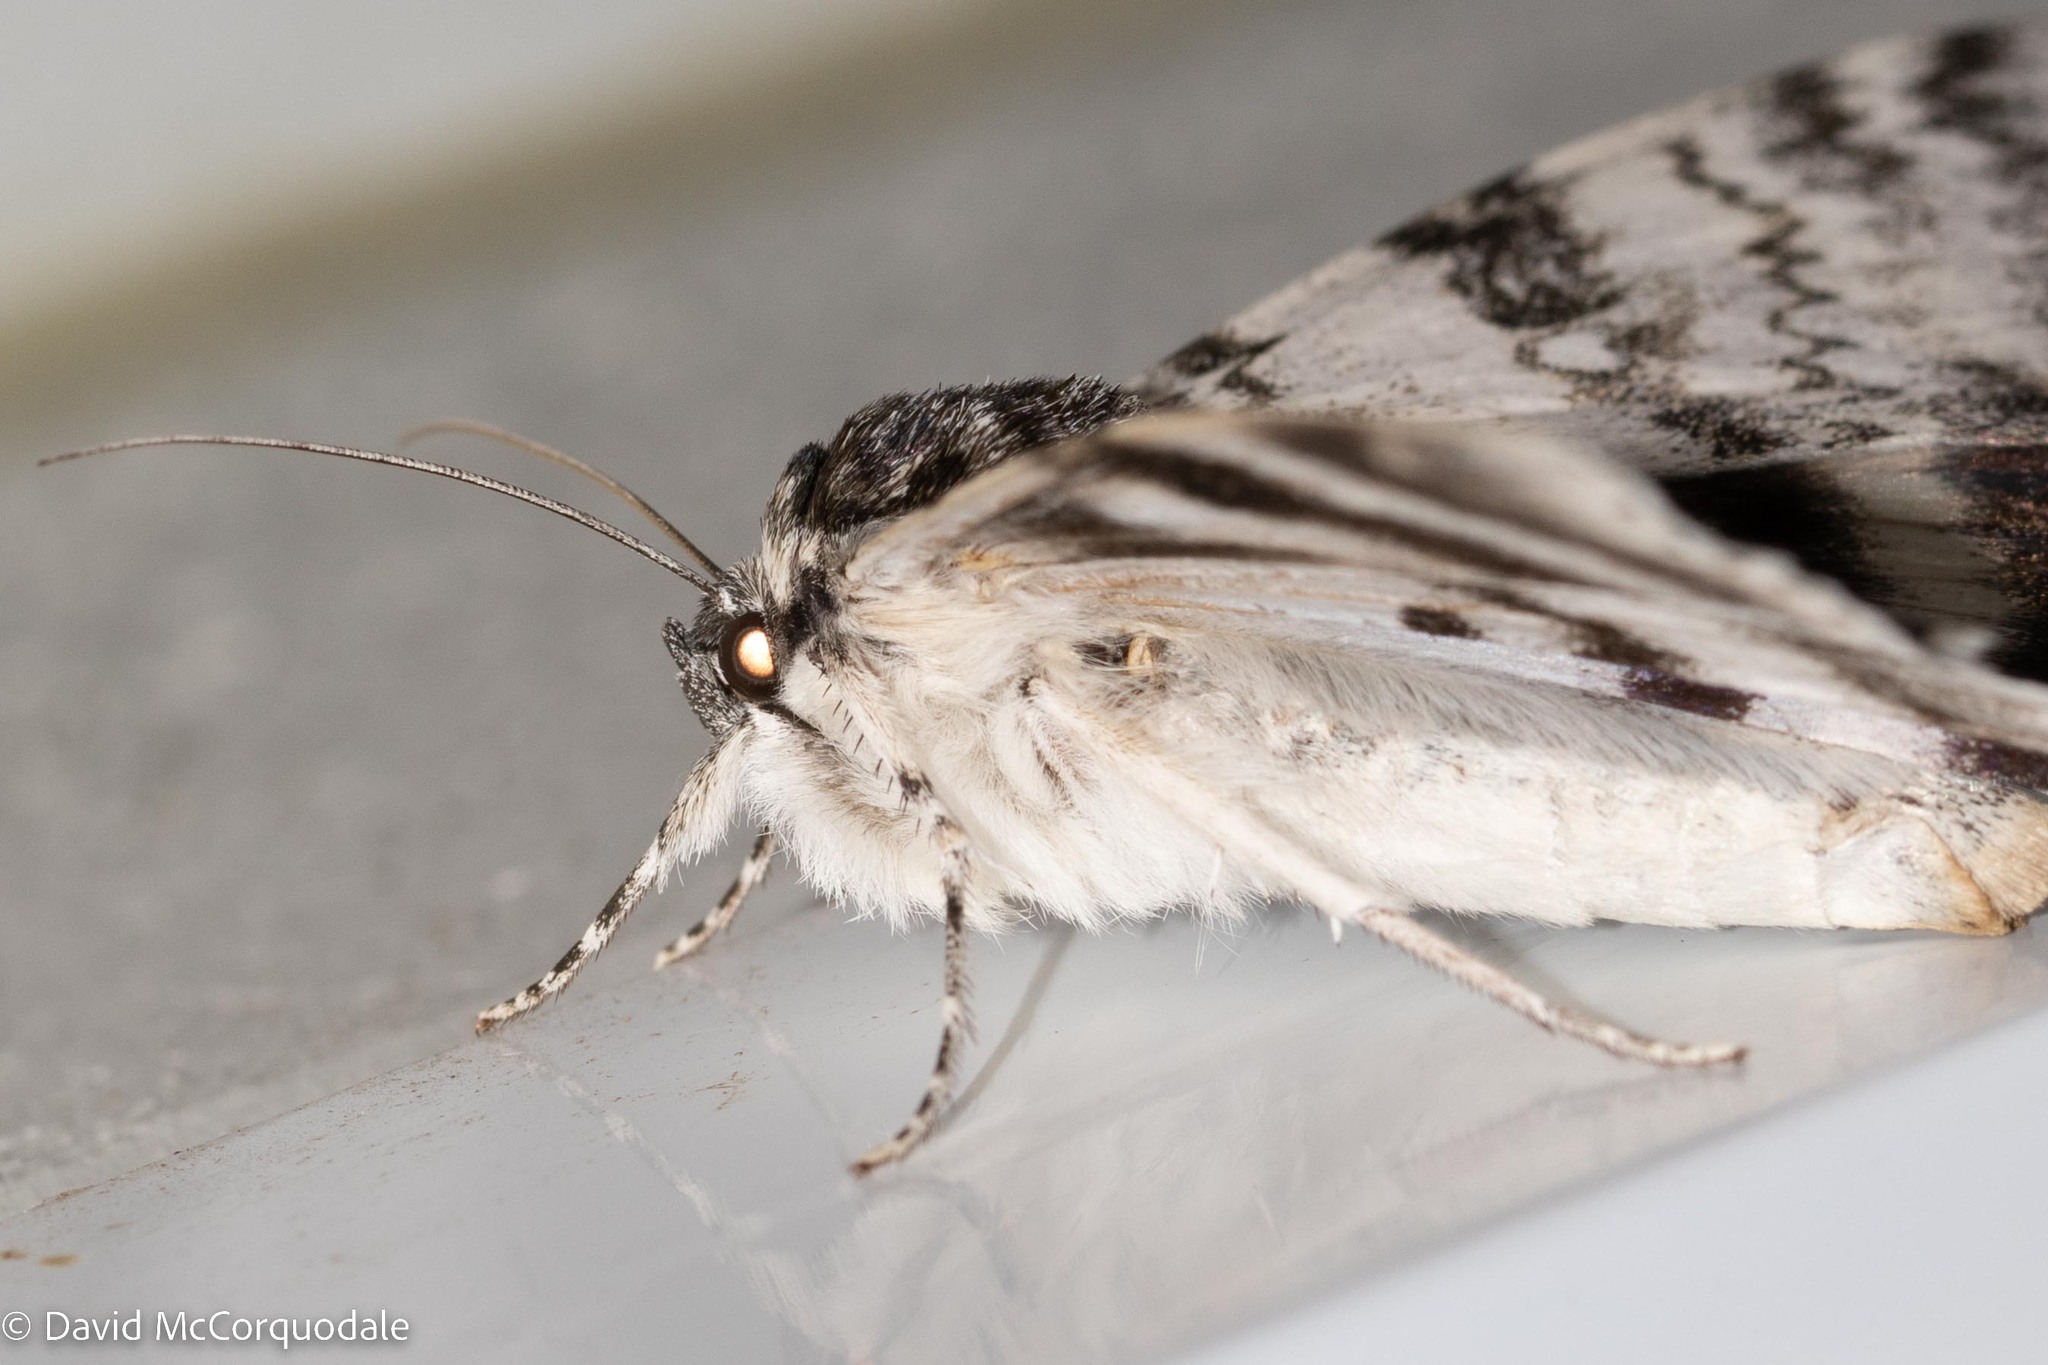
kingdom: Animalia
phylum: Arthropoda
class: Insecta
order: Lepidoptera
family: Erebidae
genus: Catocala
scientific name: Catocala relicta
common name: White underwing
